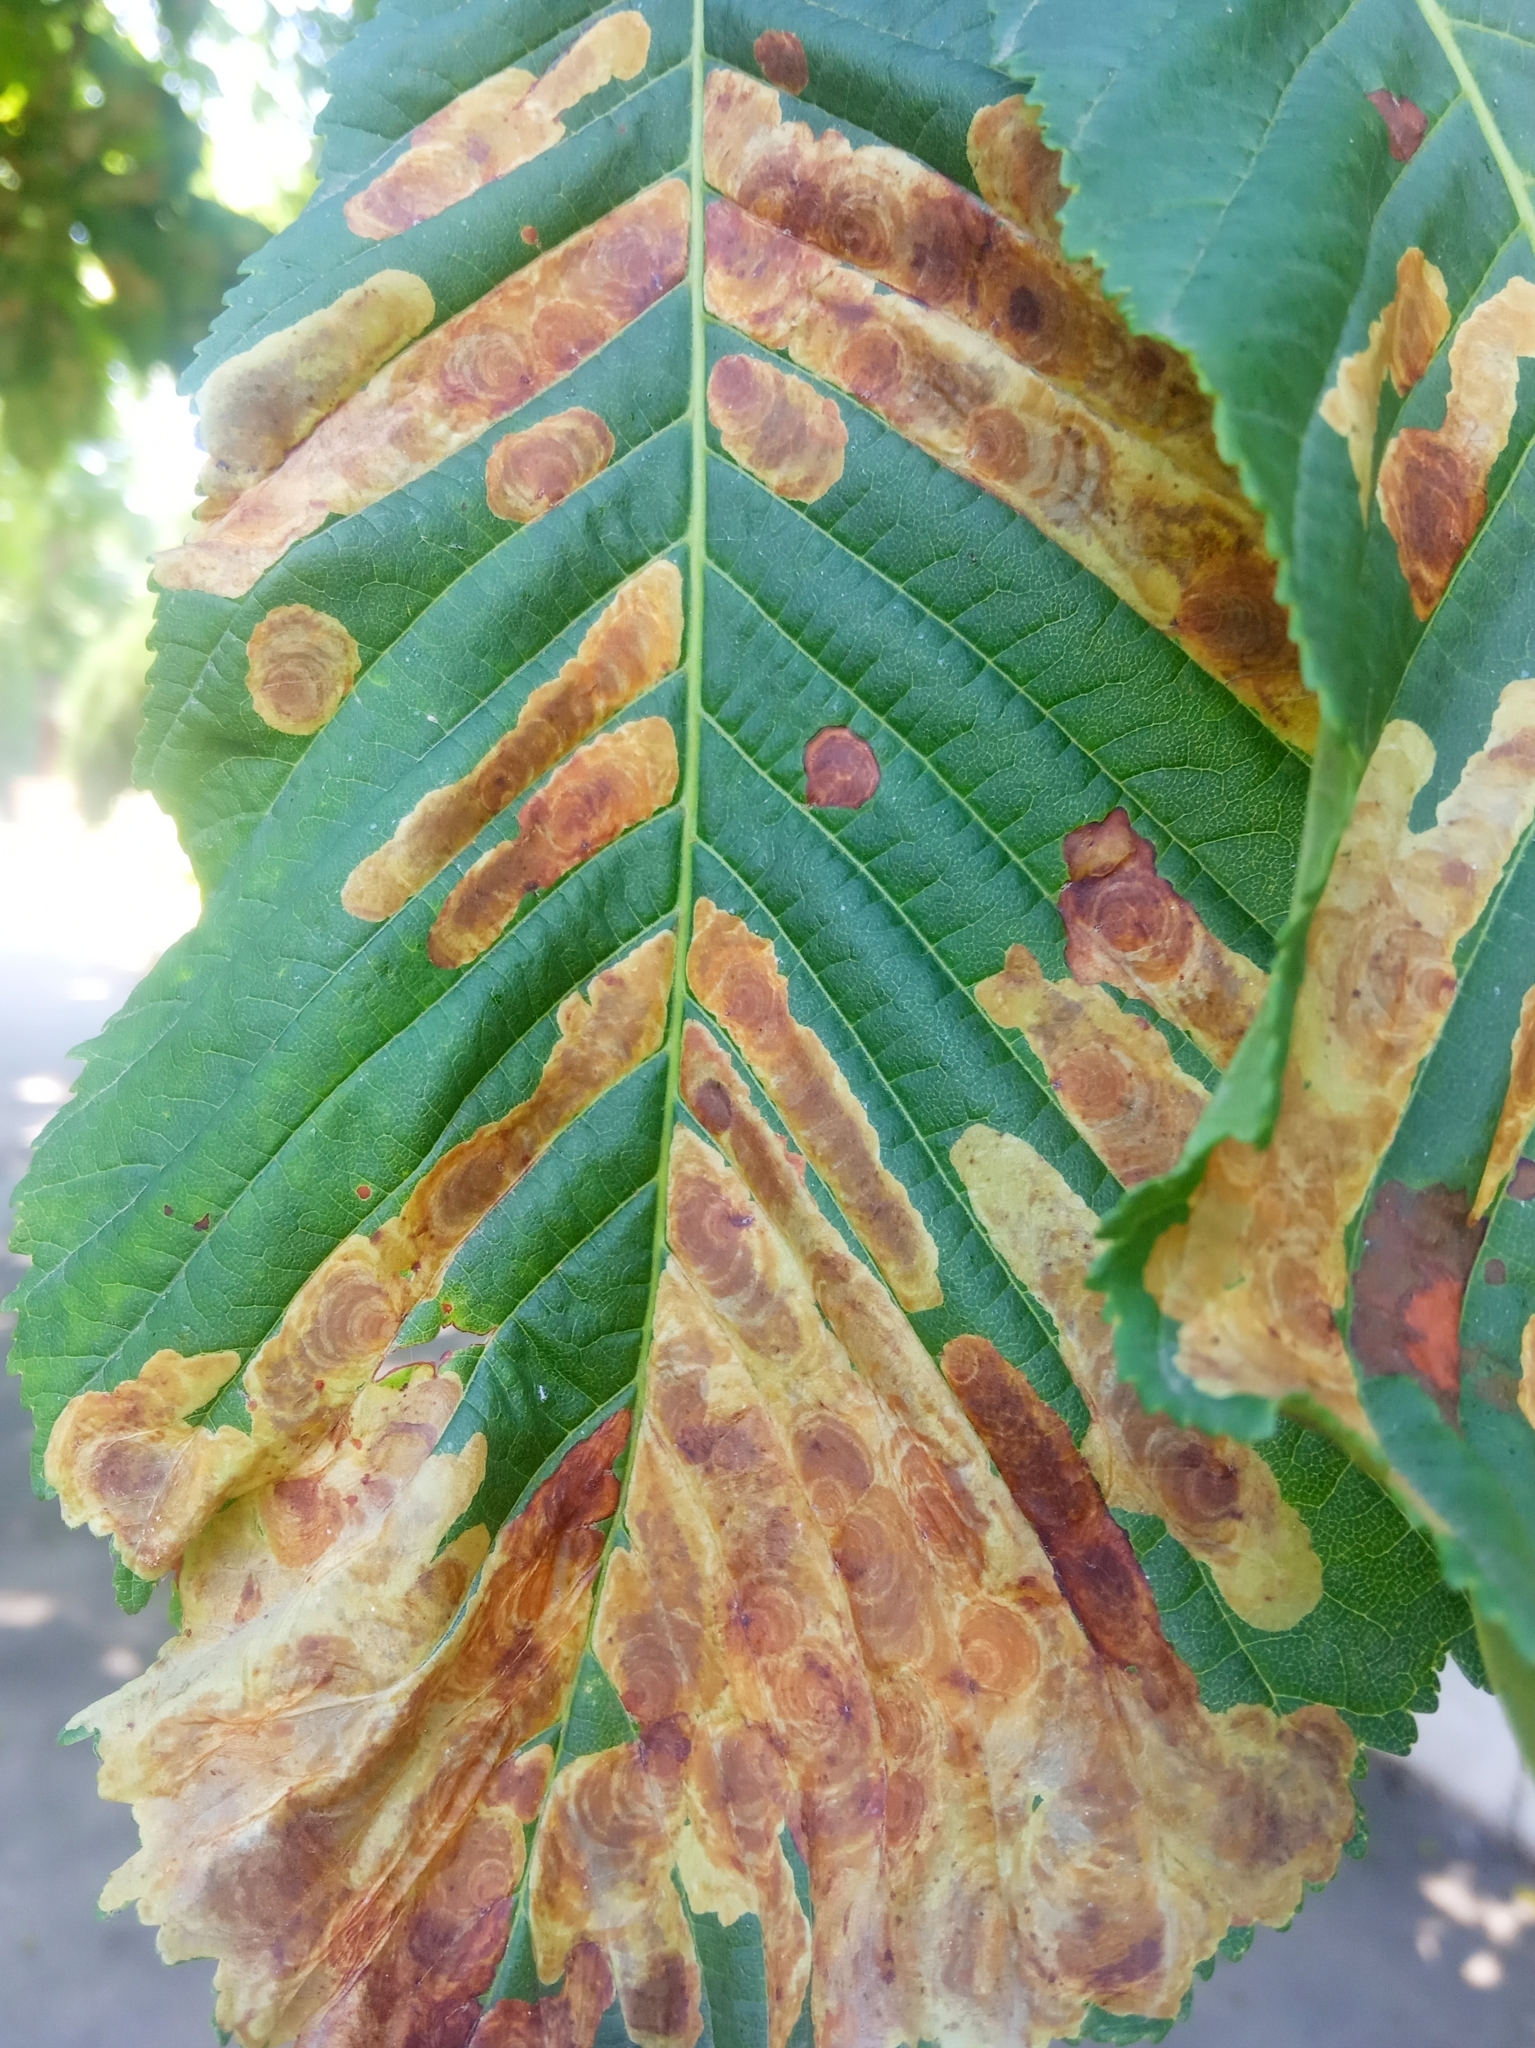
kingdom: Animalia
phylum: Arthropoda
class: Insecta
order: Lepidoptera
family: Gracillariidae
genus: Cameraria
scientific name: Cameraria ohridella
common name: Horse-chestnut leaf-miner
